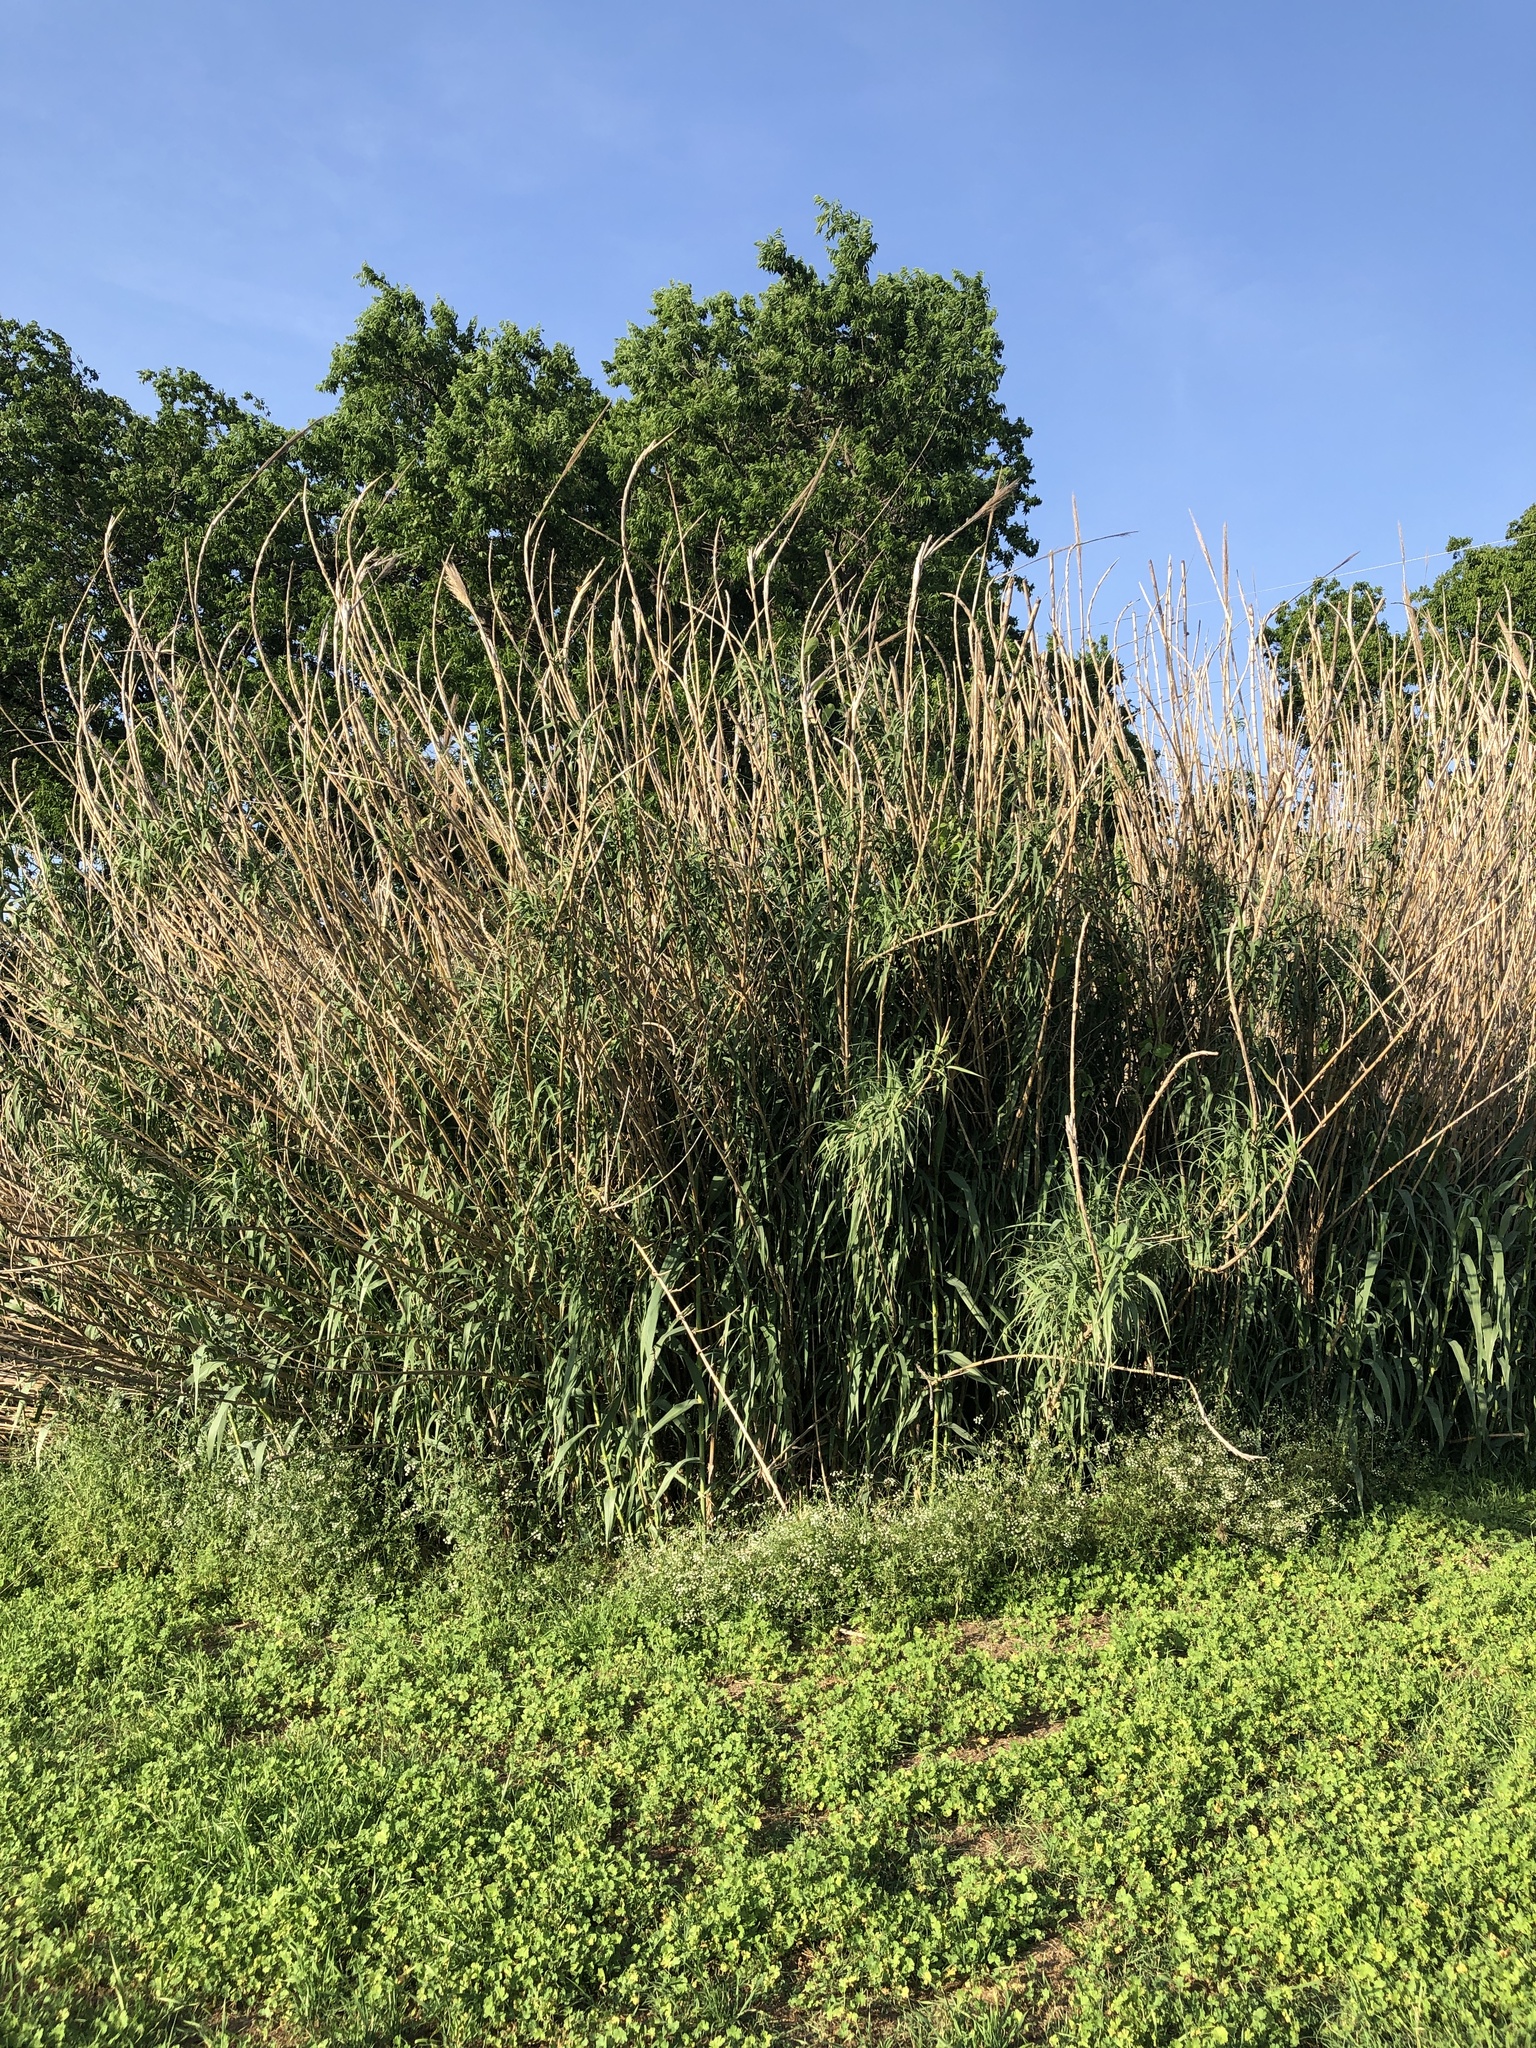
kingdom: Plantae
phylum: Tracheophyta
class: Liliopsida
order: Poales
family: Poaceae
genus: Arundo
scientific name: Arundo donax
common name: Giant reed
